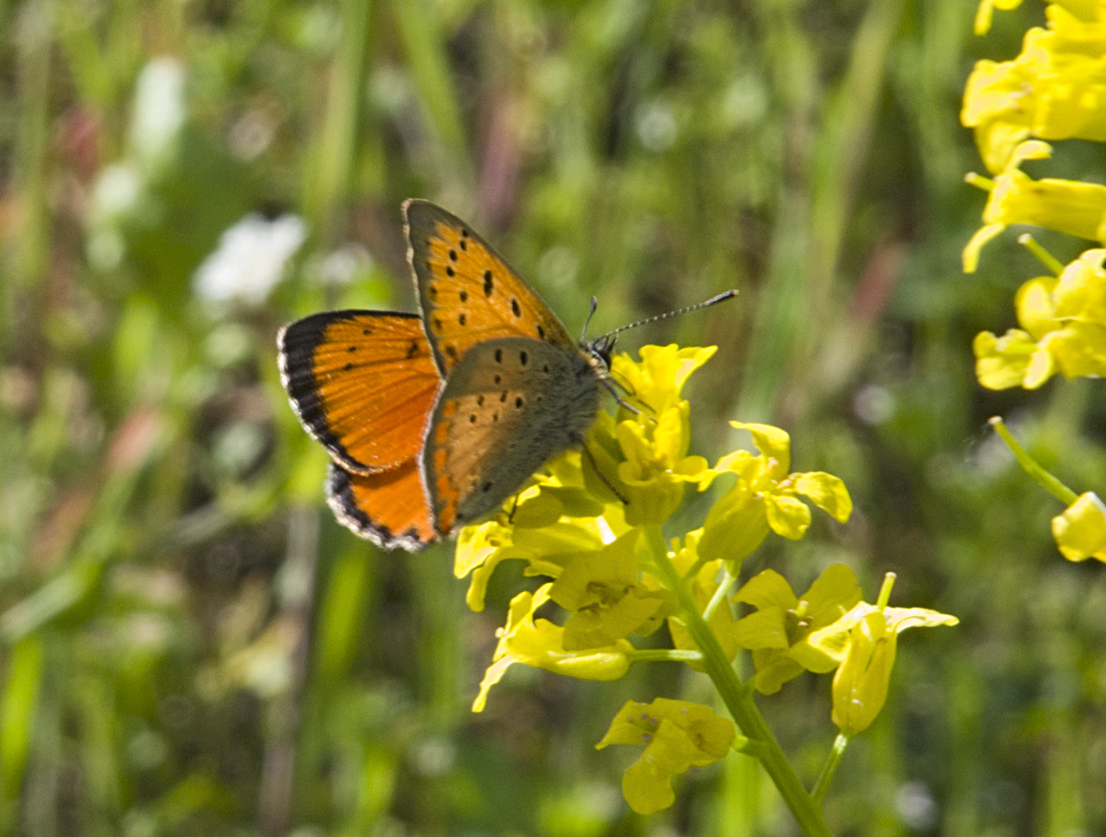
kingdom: Animalia
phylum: Arthropoda
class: Insecta
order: Lepidoptera
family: Lycaenidae
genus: Polyommatus
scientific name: Polyommatus ottomanus
